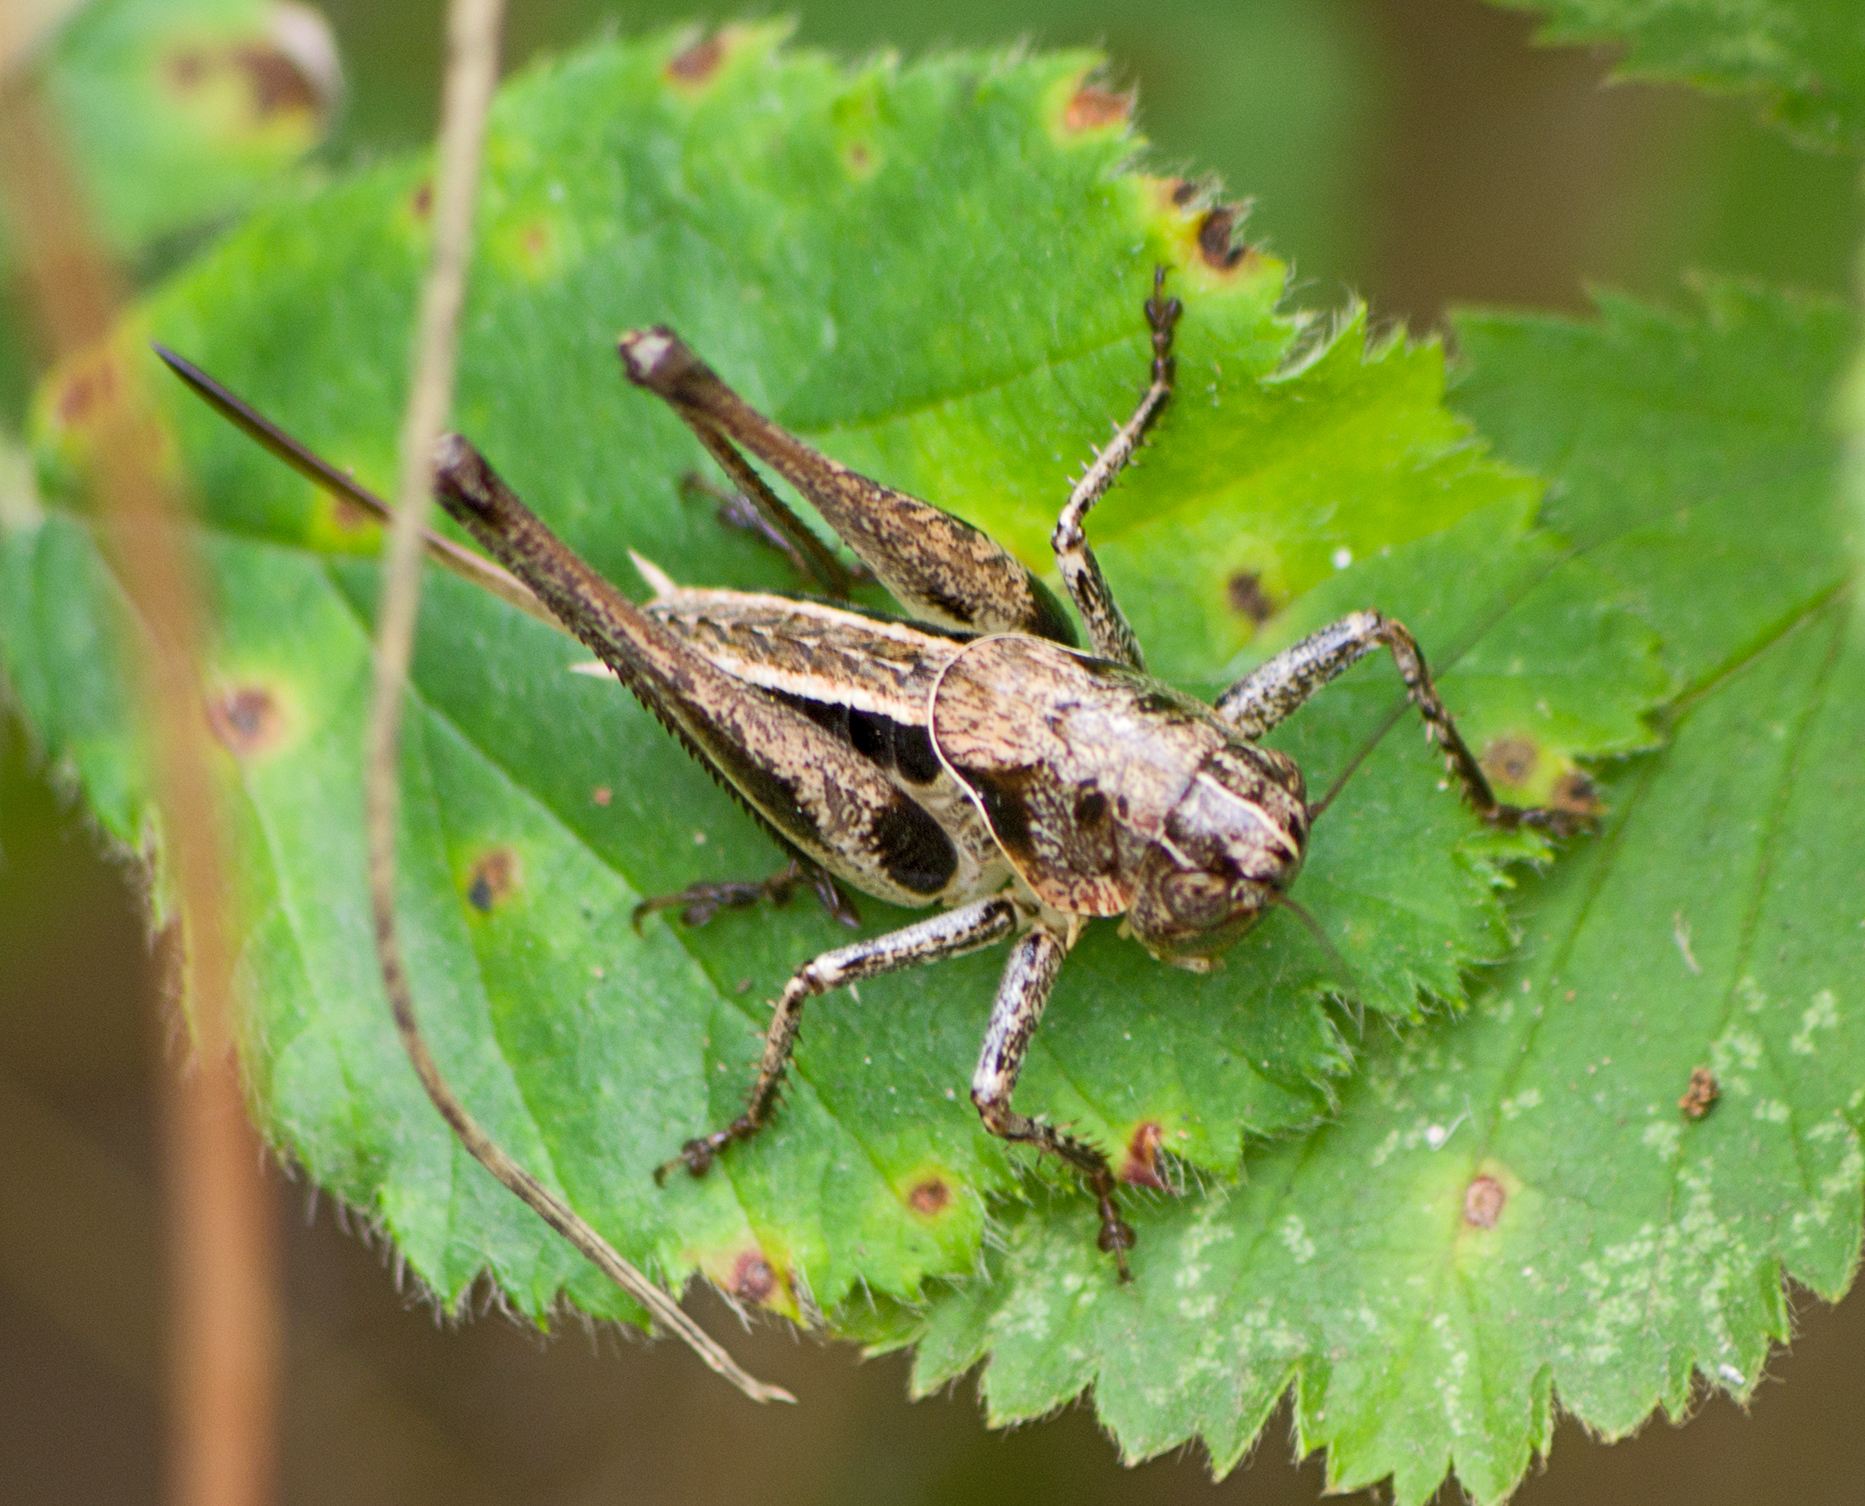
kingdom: Animalia
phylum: Arthropoda
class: Insecta
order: Orthoptera
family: Tettigoniidae
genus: Bucephaloptera
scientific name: Bucephaloptera bucephala
